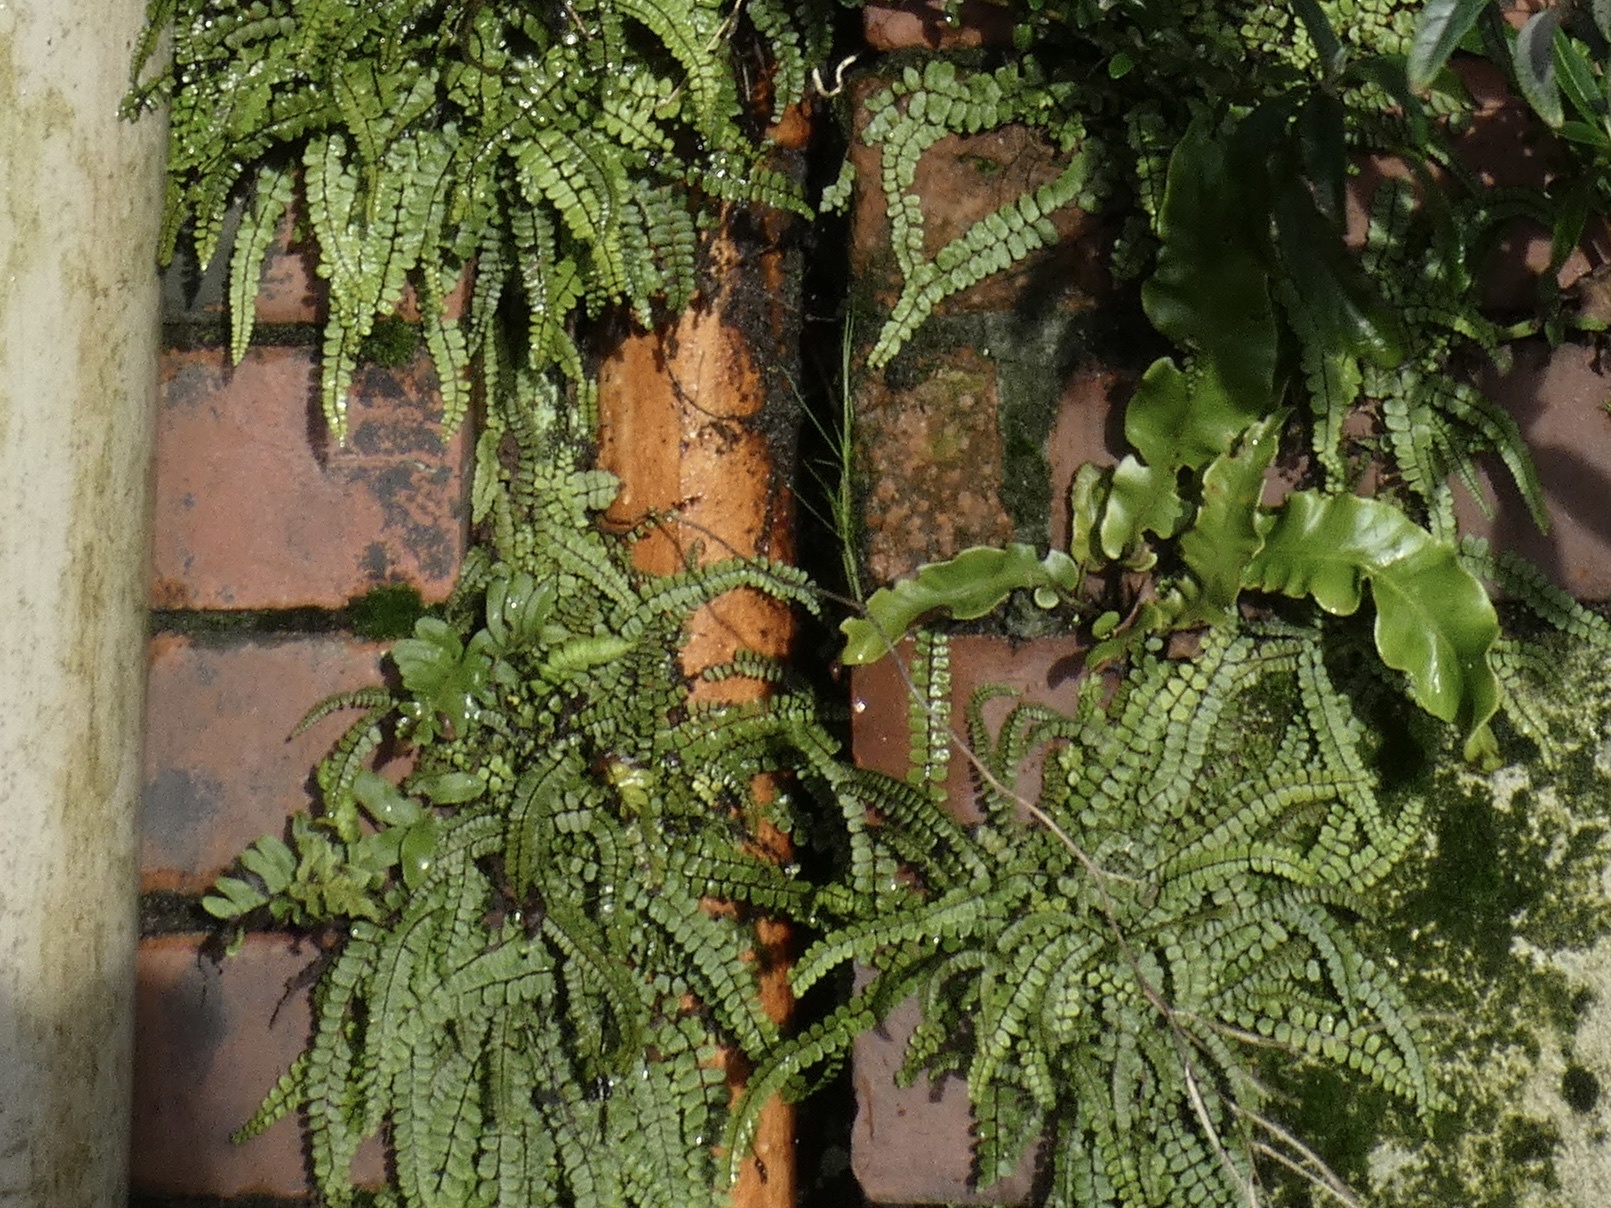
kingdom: Plantae
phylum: Tracheophyta
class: Polypodiopsida
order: Polypodiales
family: Aspleniaceae
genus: Asplenium
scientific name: Asplenium trichomanes
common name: Maidenhair spleenwort
